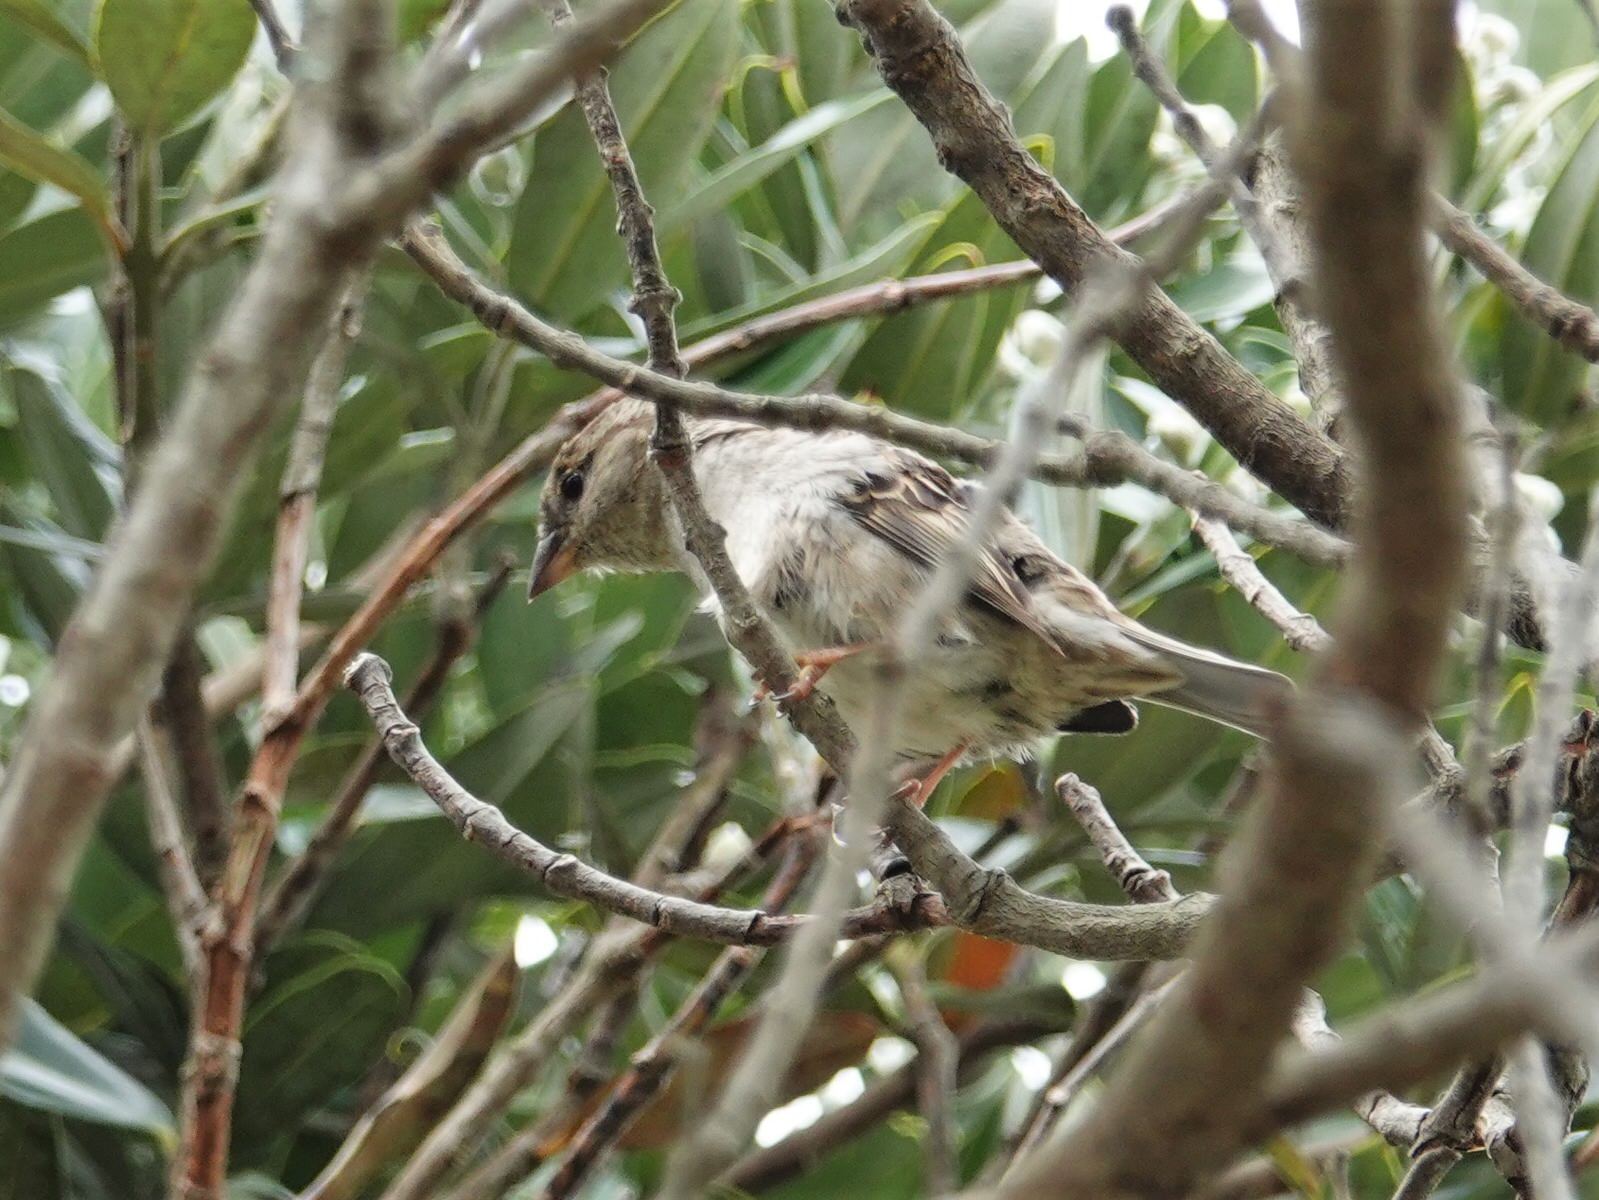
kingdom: Animalia
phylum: Chordata
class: Aves
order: Passeriformes
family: Passeridae
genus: Passer
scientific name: Passer domesticus
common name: House sparrow
